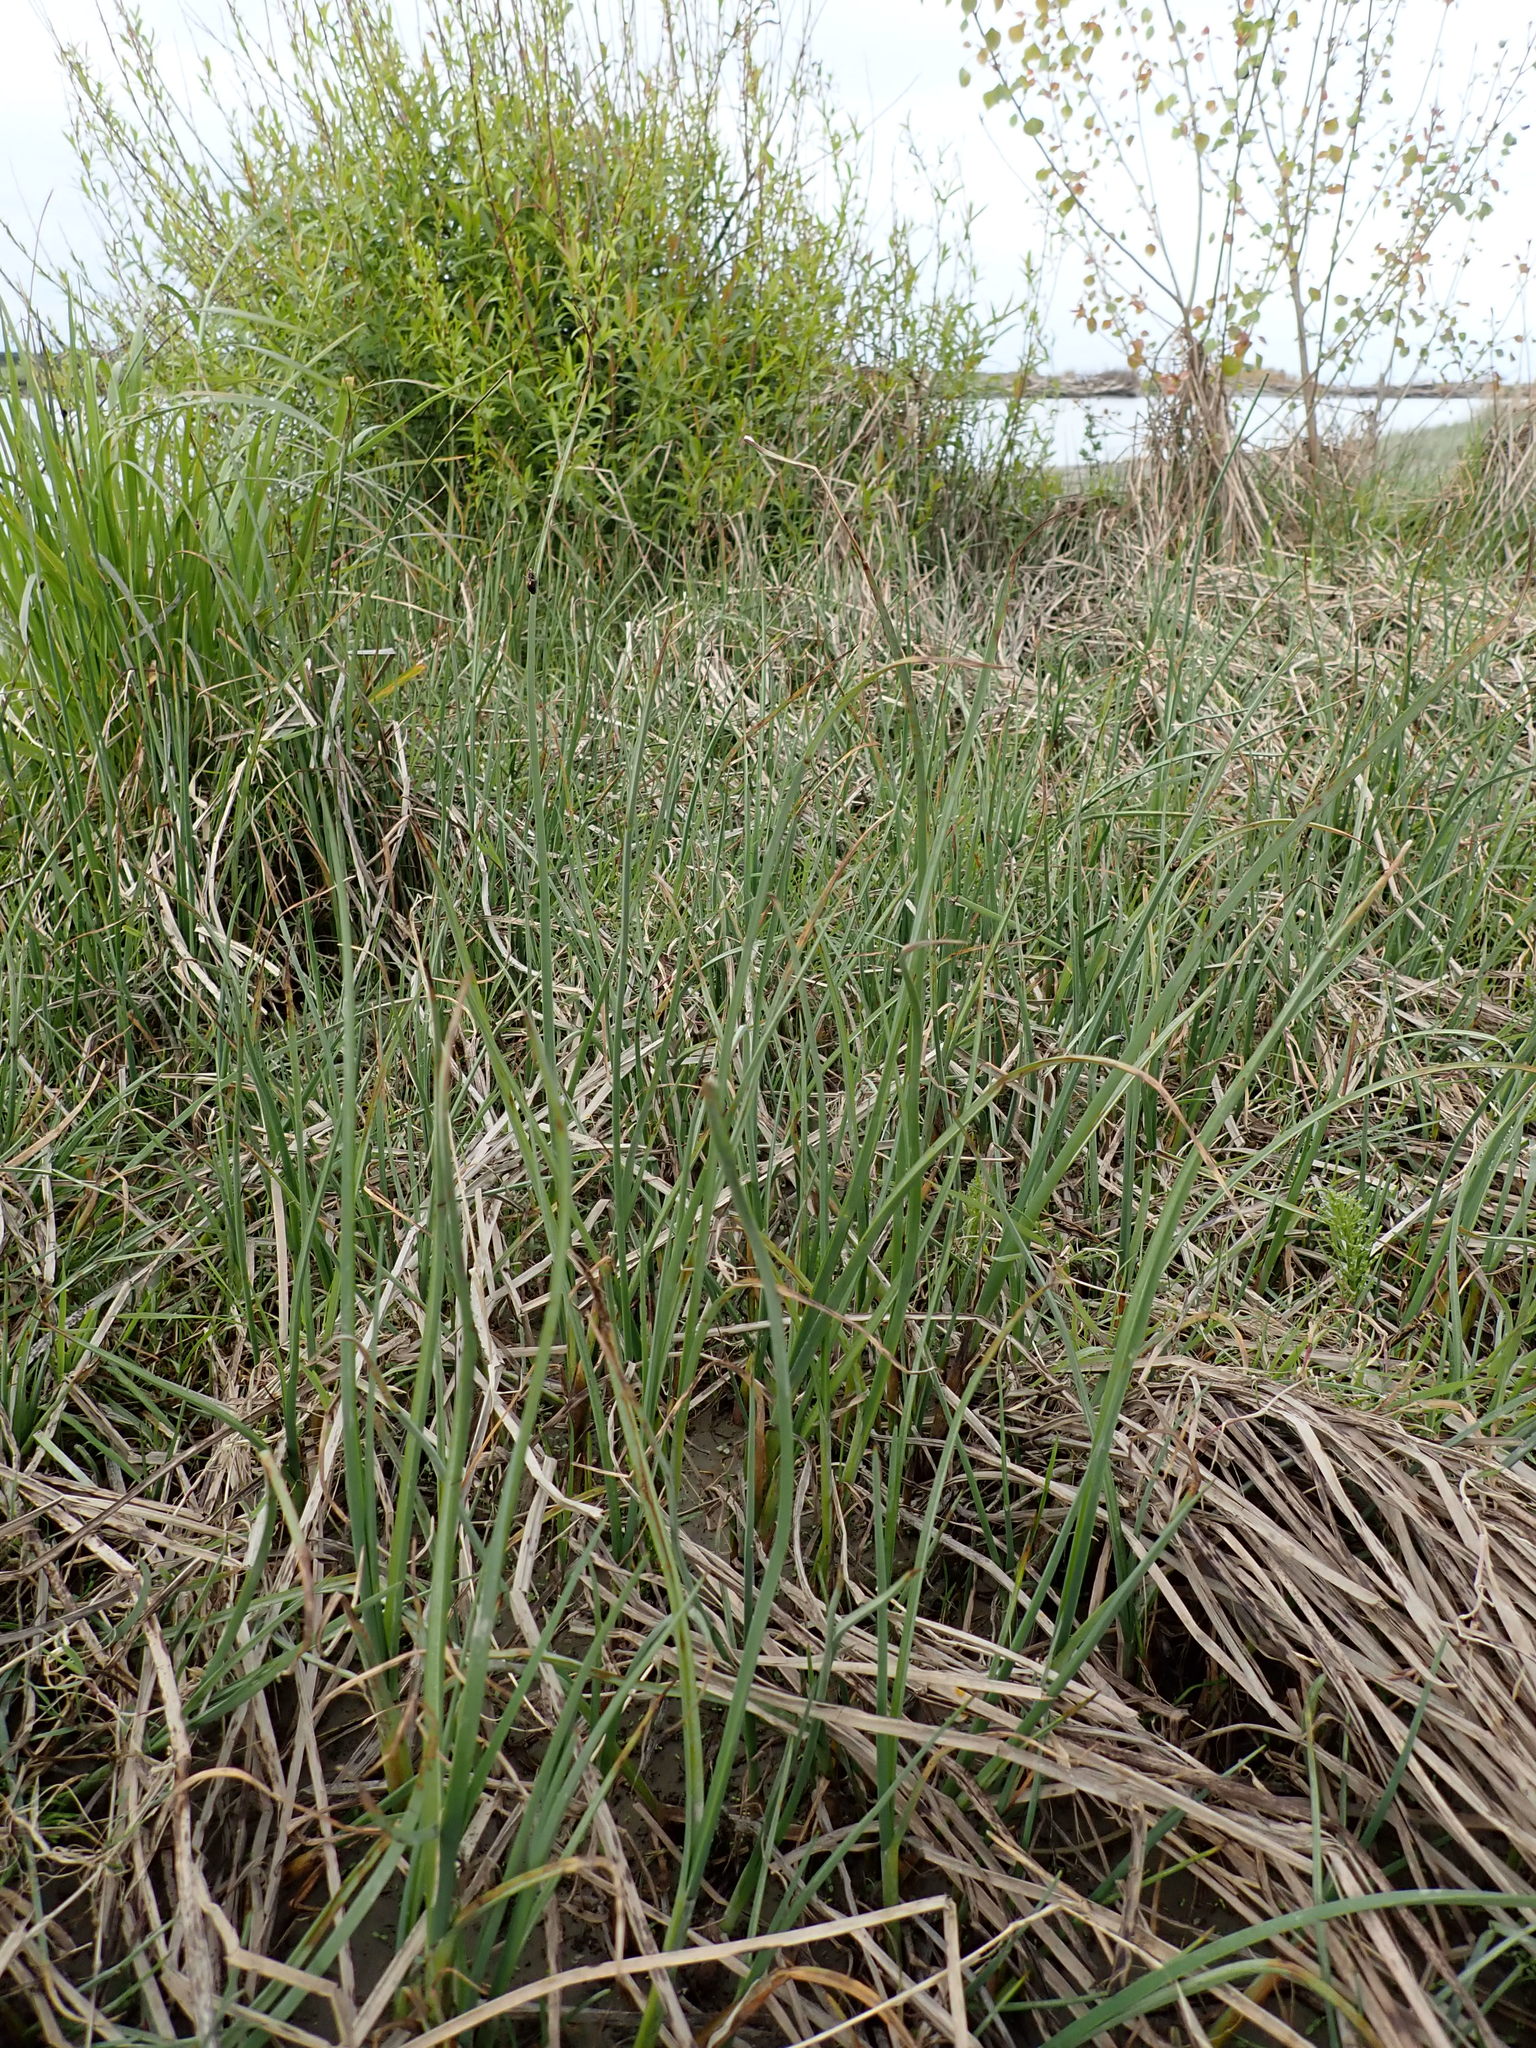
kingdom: Plantae
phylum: Tracheophyta
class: Liliopsida
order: Poales
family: Cyperaceae
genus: Schoenoplectus
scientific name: Schoenoplectus pungens
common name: Sharp club-rush
